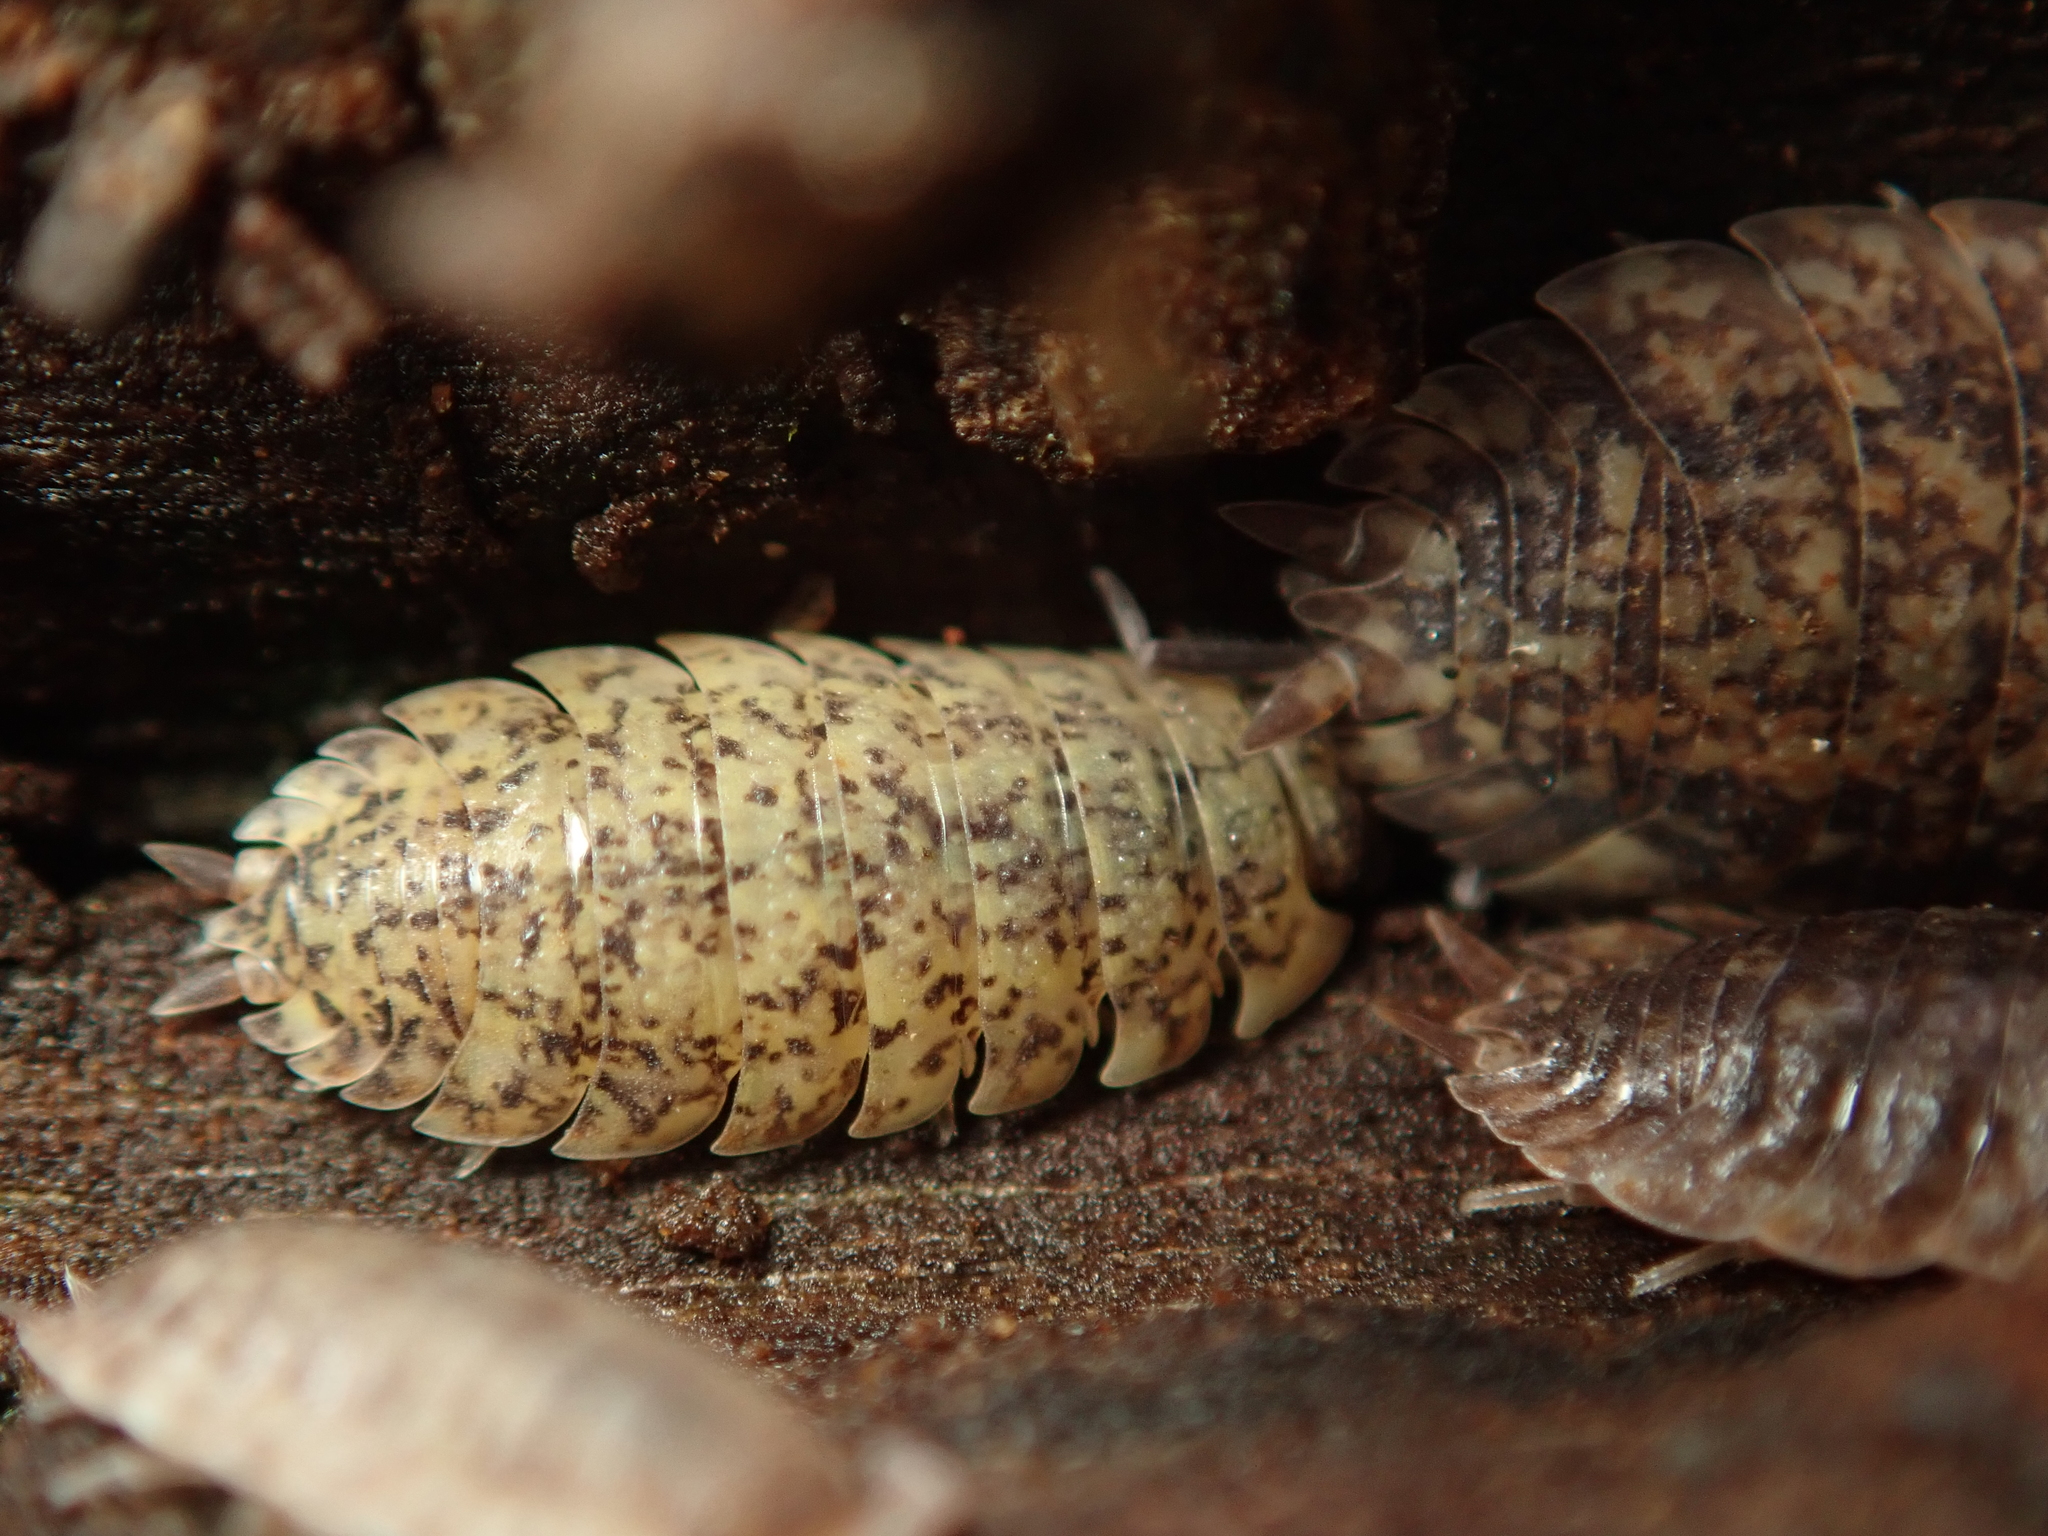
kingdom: Animalia
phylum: Arthropoda
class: Malacostraca
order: Isopoda
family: Porcellionidae
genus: Porcellio
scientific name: Porcellio scaber
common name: Common rough woodlouse
